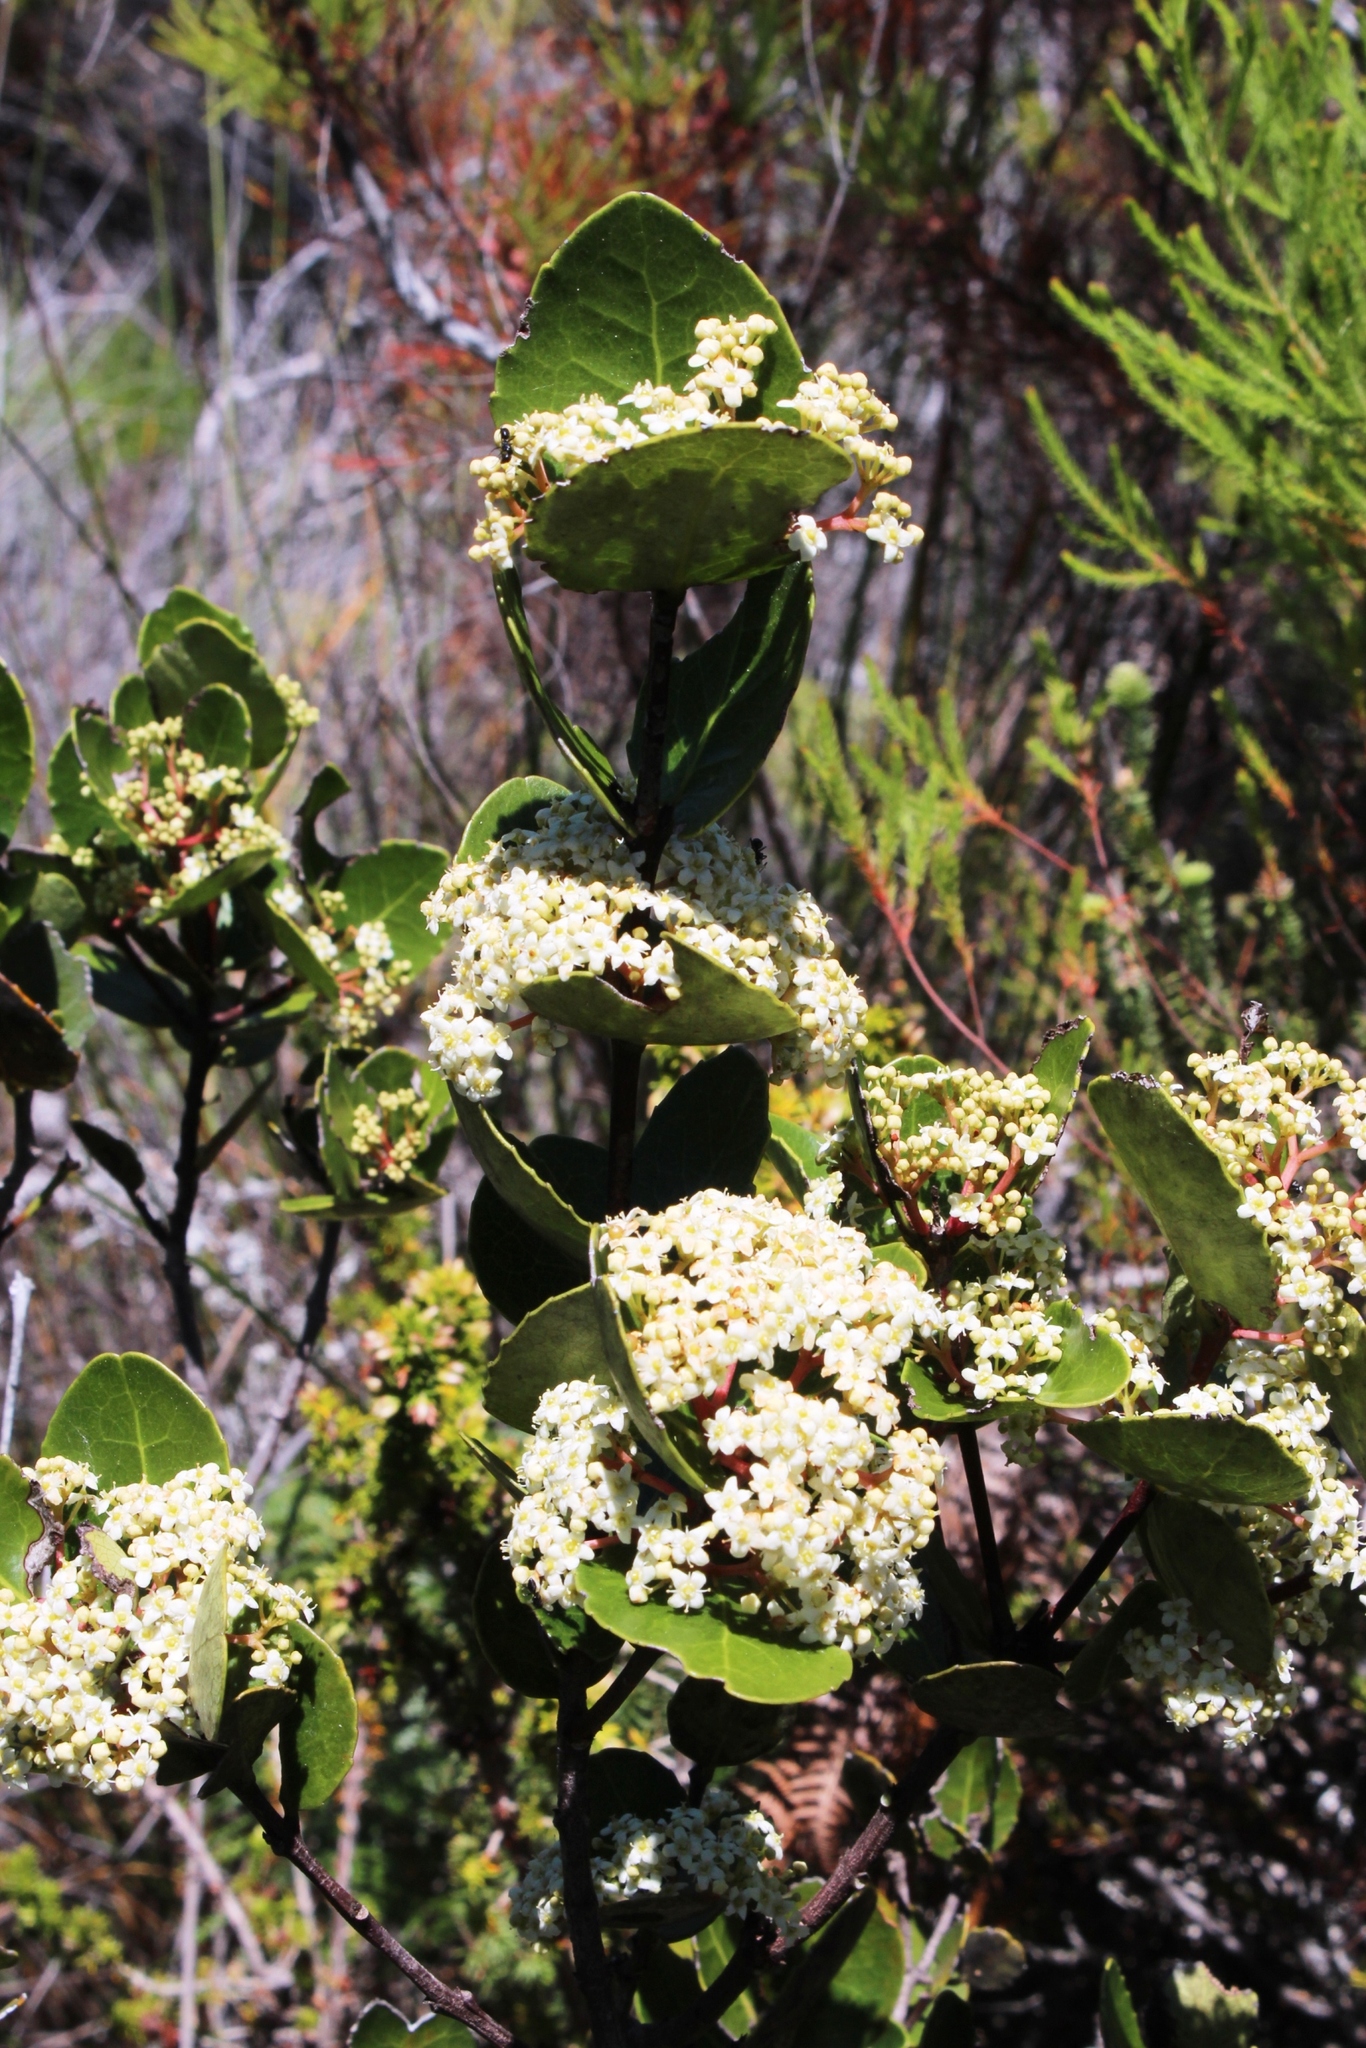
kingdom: Plantae
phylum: Tracheophyta
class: Magnoliopsida
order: Celastrales
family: Celastraceae
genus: Cassine
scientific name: Cassine peragua
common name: Cape saffron
